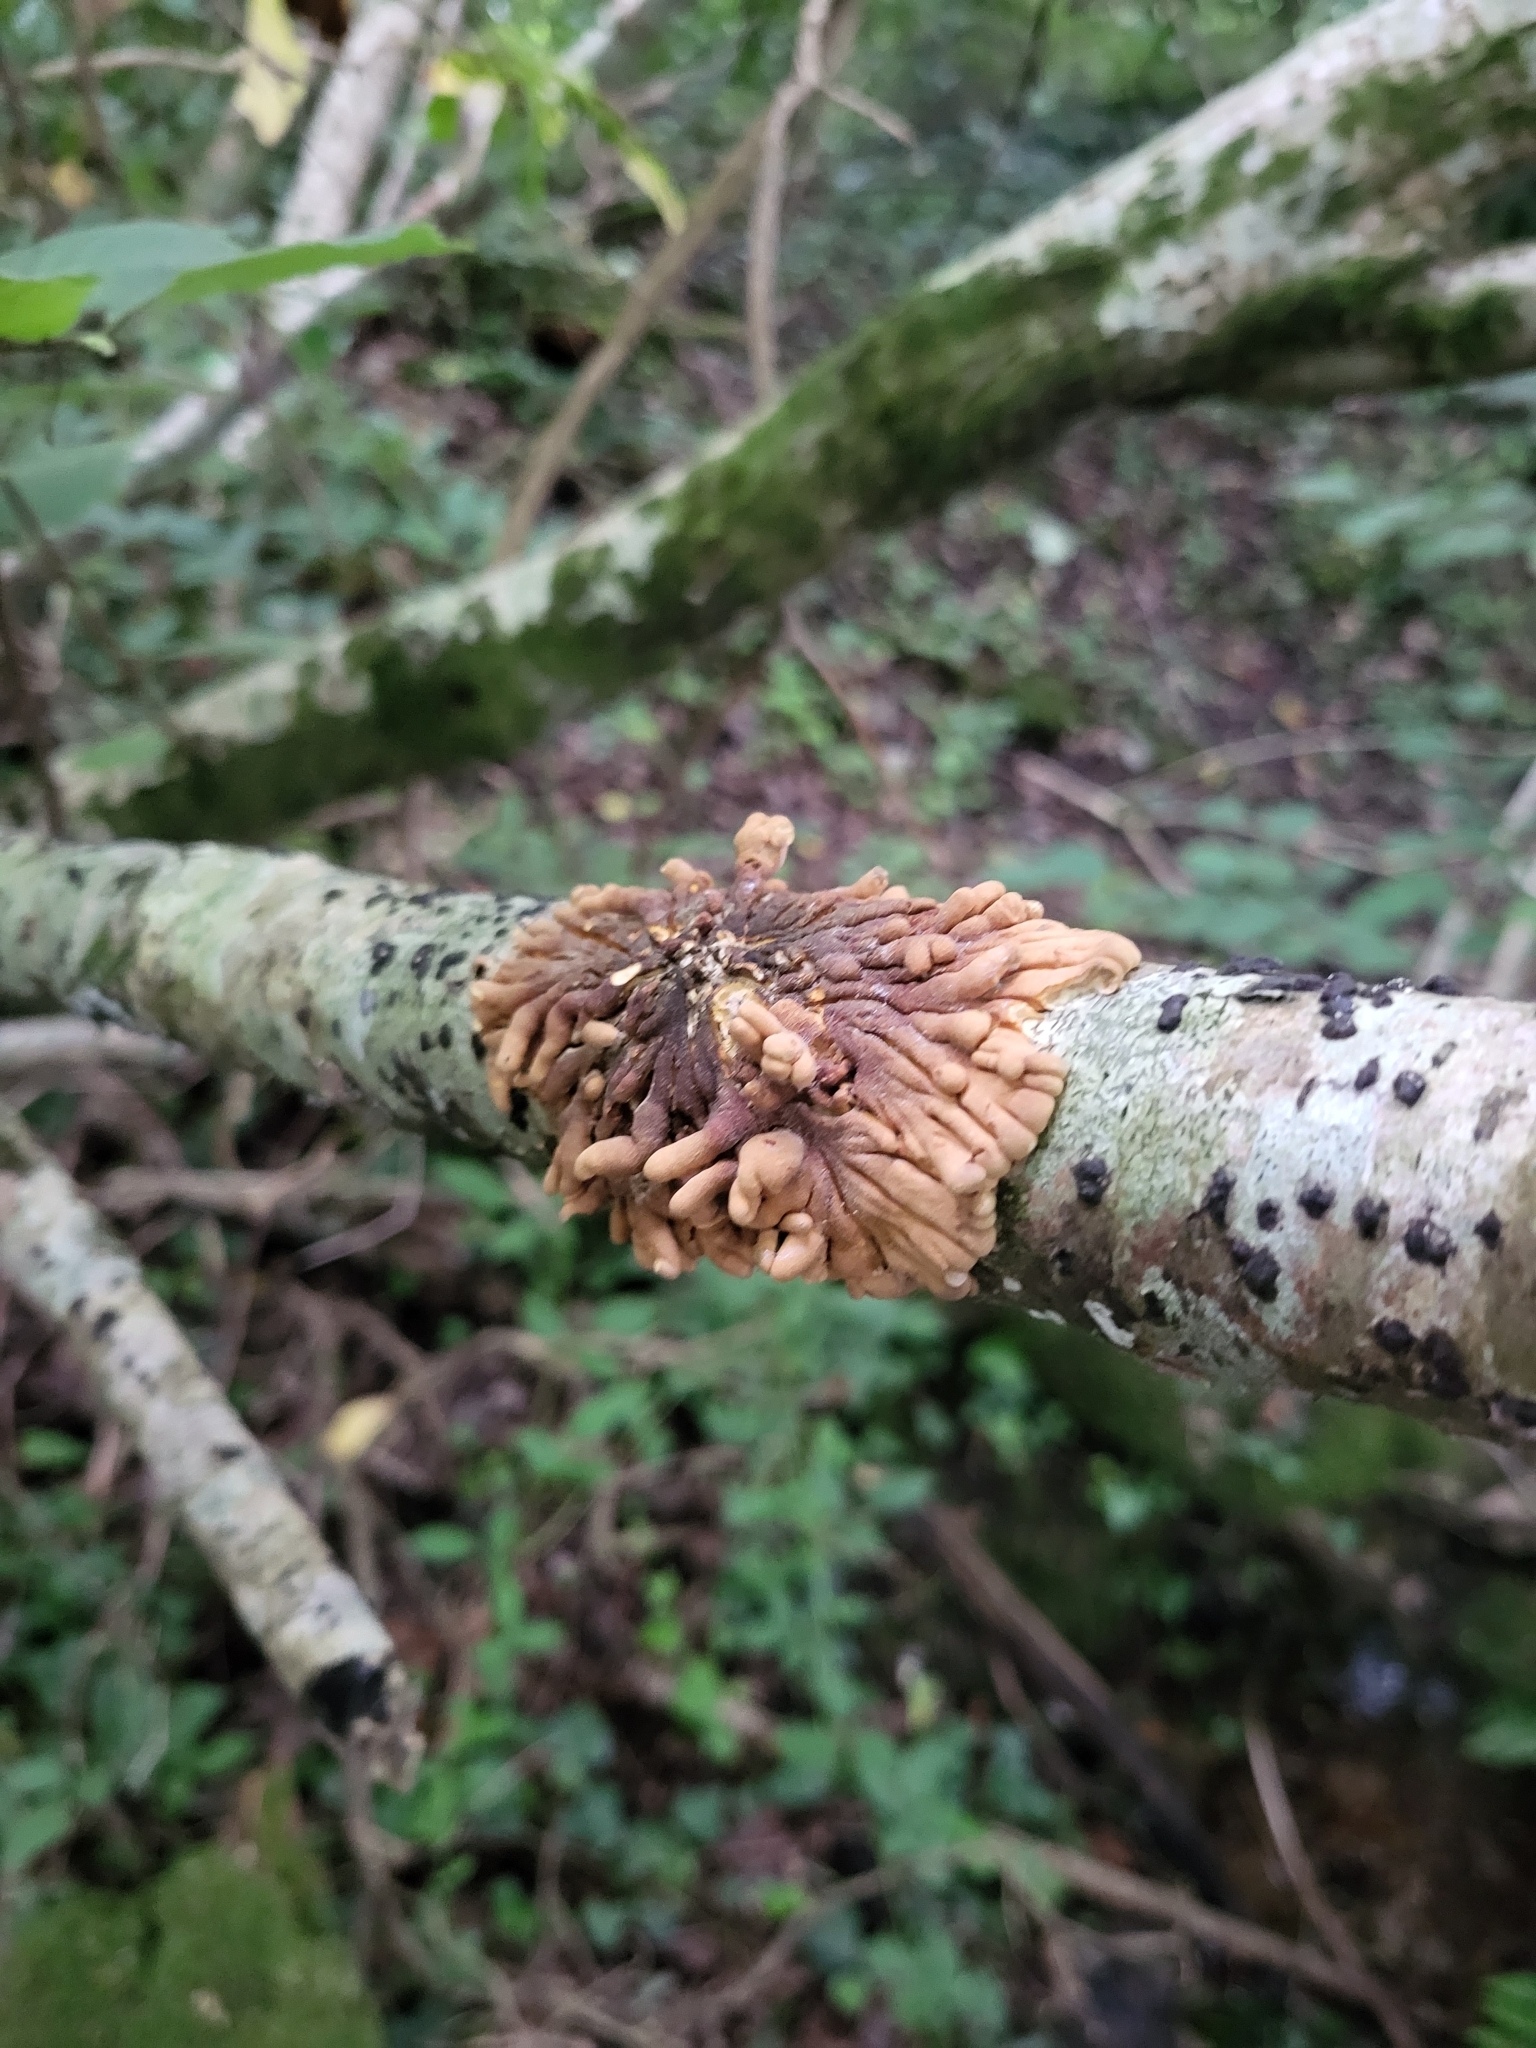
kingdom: Fungi
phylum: Ascomycota
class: Sordariomycetes
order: Hypocreales
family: Hypocreaceae
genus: Hypocreopsis
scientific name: Hypocreopsis rhododendri
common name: Hazel gloves
